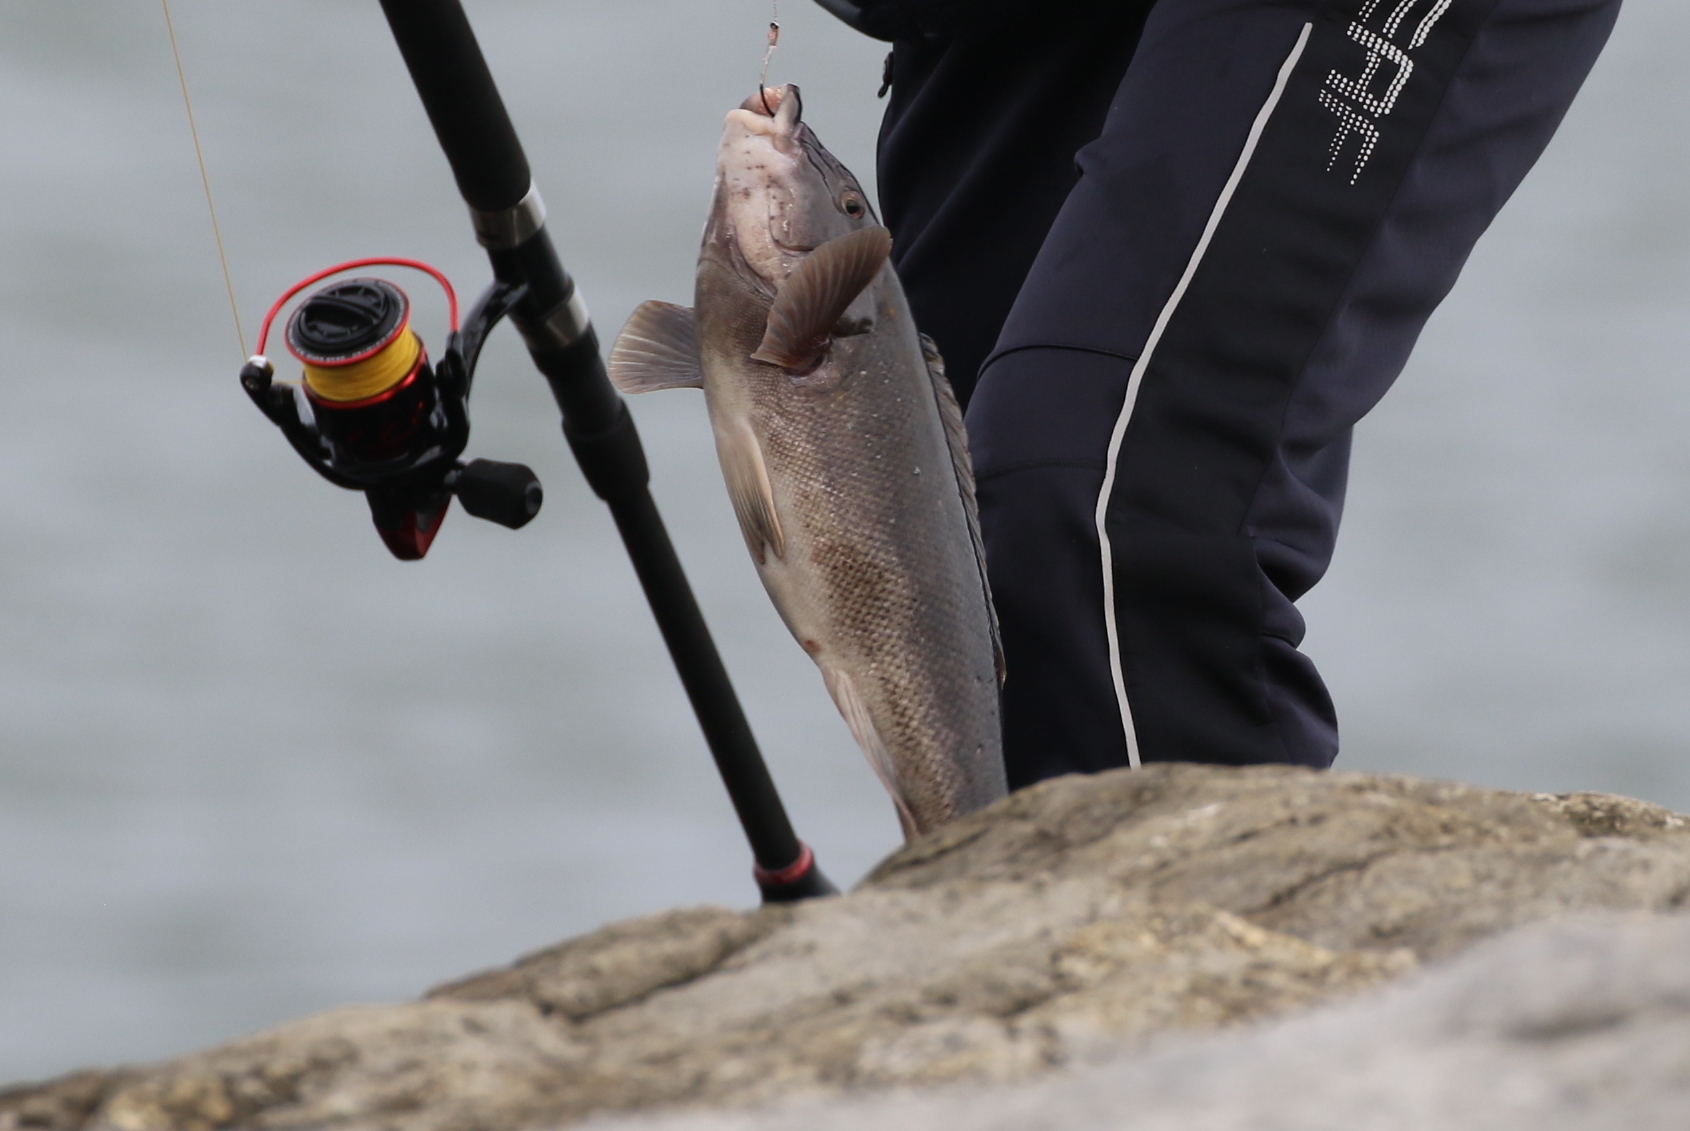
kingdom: Animalia
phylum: Chordata
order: Perciformes
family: Labridae
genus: Tautoga
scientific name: Tautoga onitis
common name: Tautog
